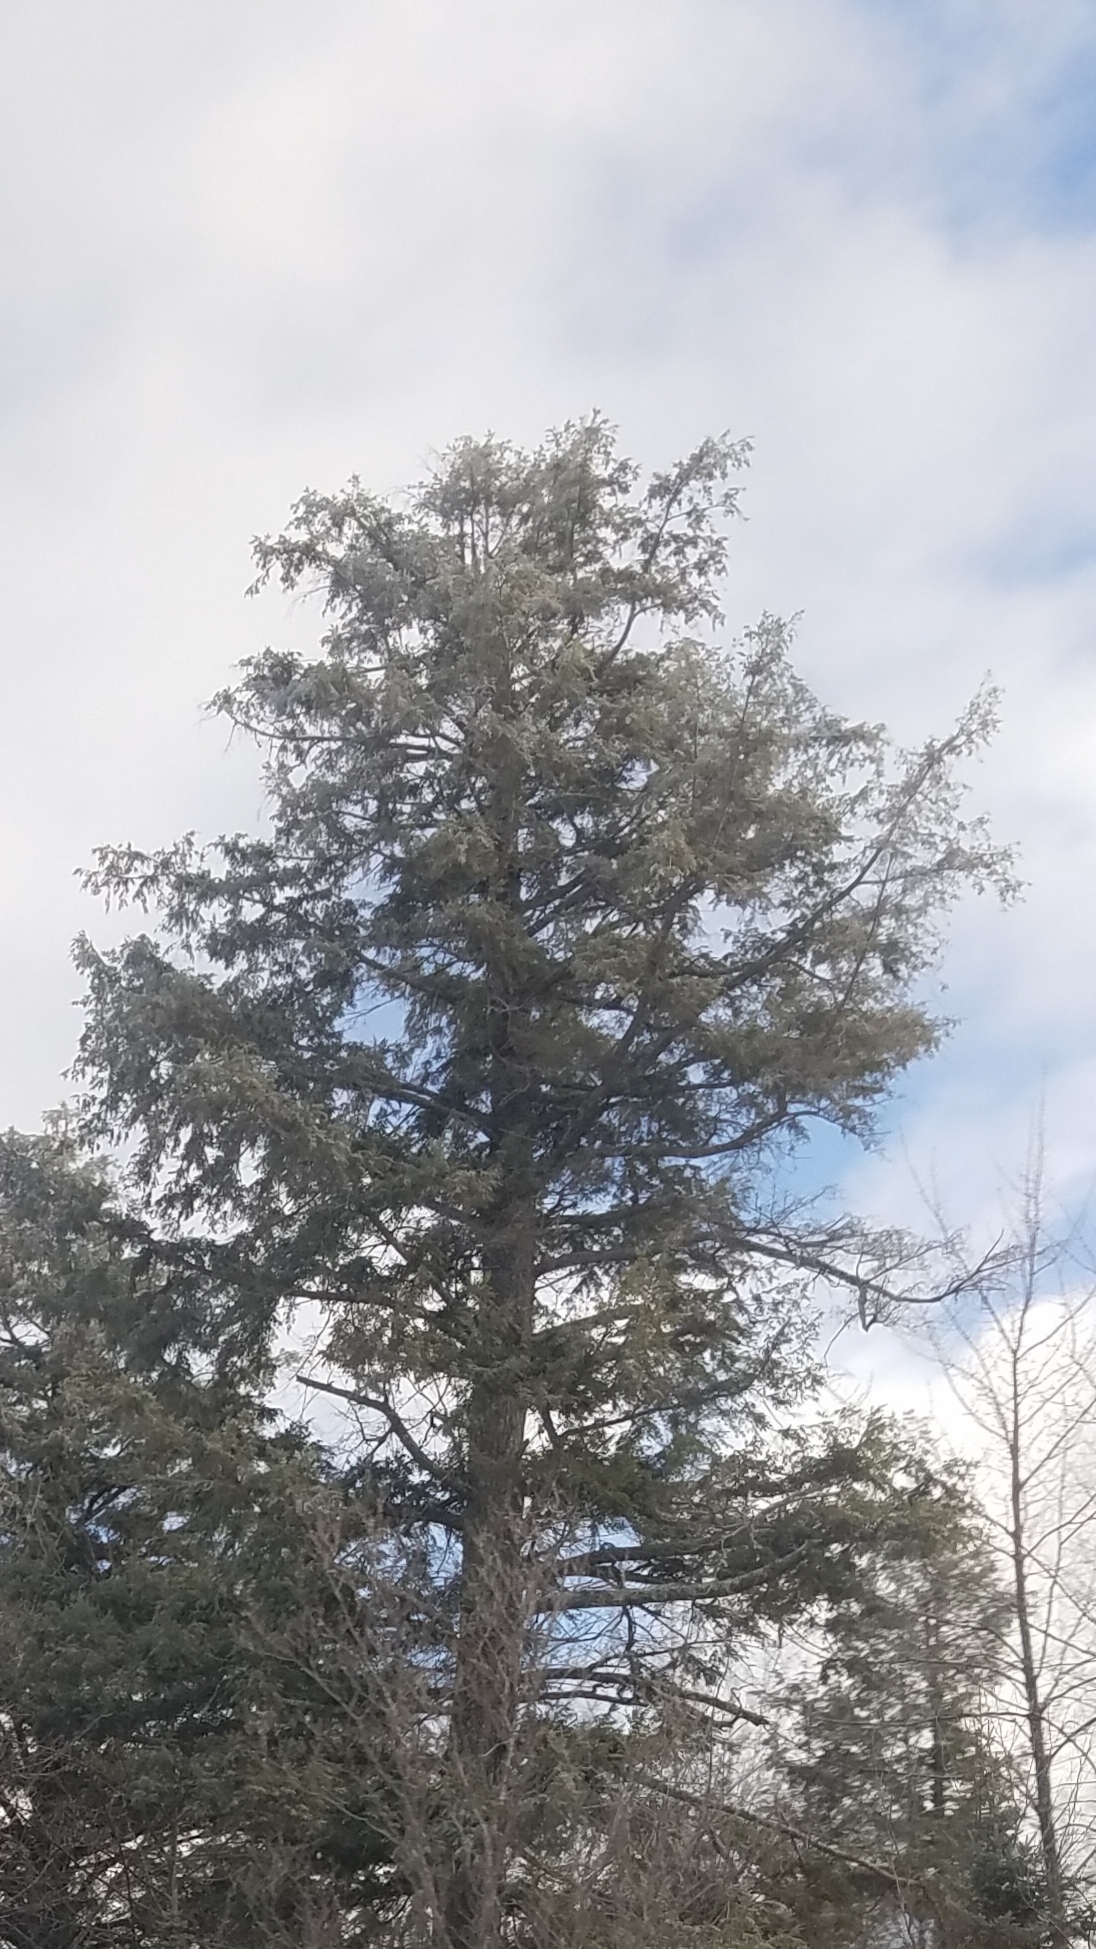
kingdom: Plantae
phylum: Tracheophyta
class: Pinopsida
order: Pinales
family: Pinaceae
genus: Tsuga
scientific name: Tsuga canadensis
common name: Eastern hemlock
